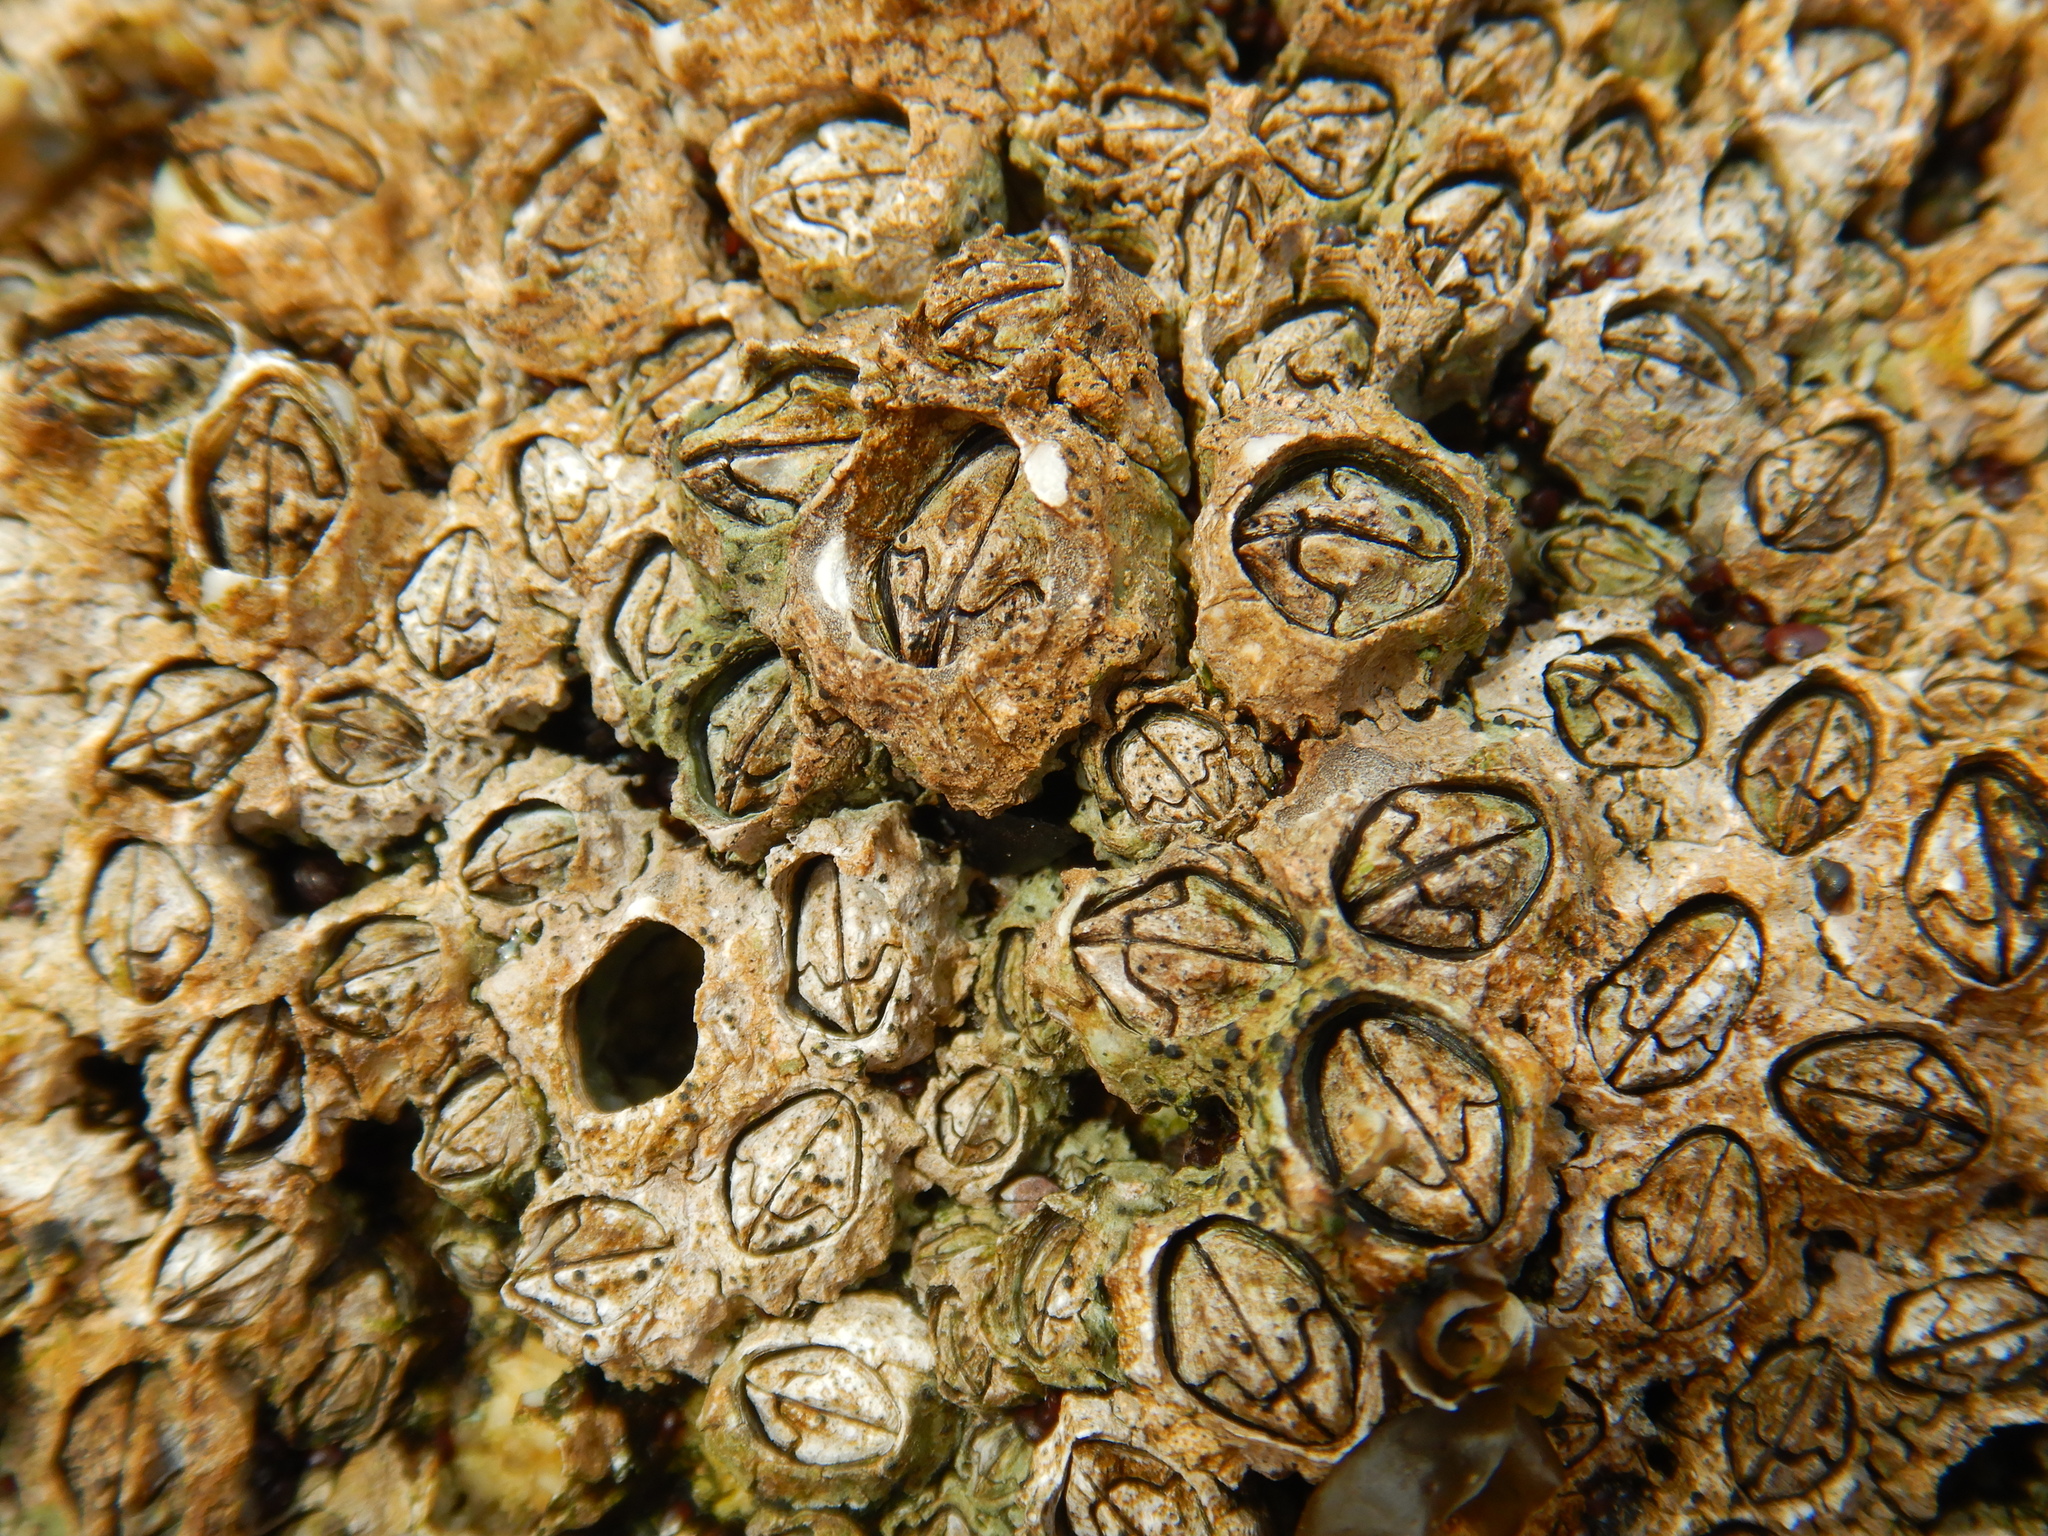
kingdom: Animalia
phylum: Arthropoda
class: Maxillopoda
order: Sessilia
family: Chthamalidae
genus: Jehlius
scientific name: Jehlius cirratus
